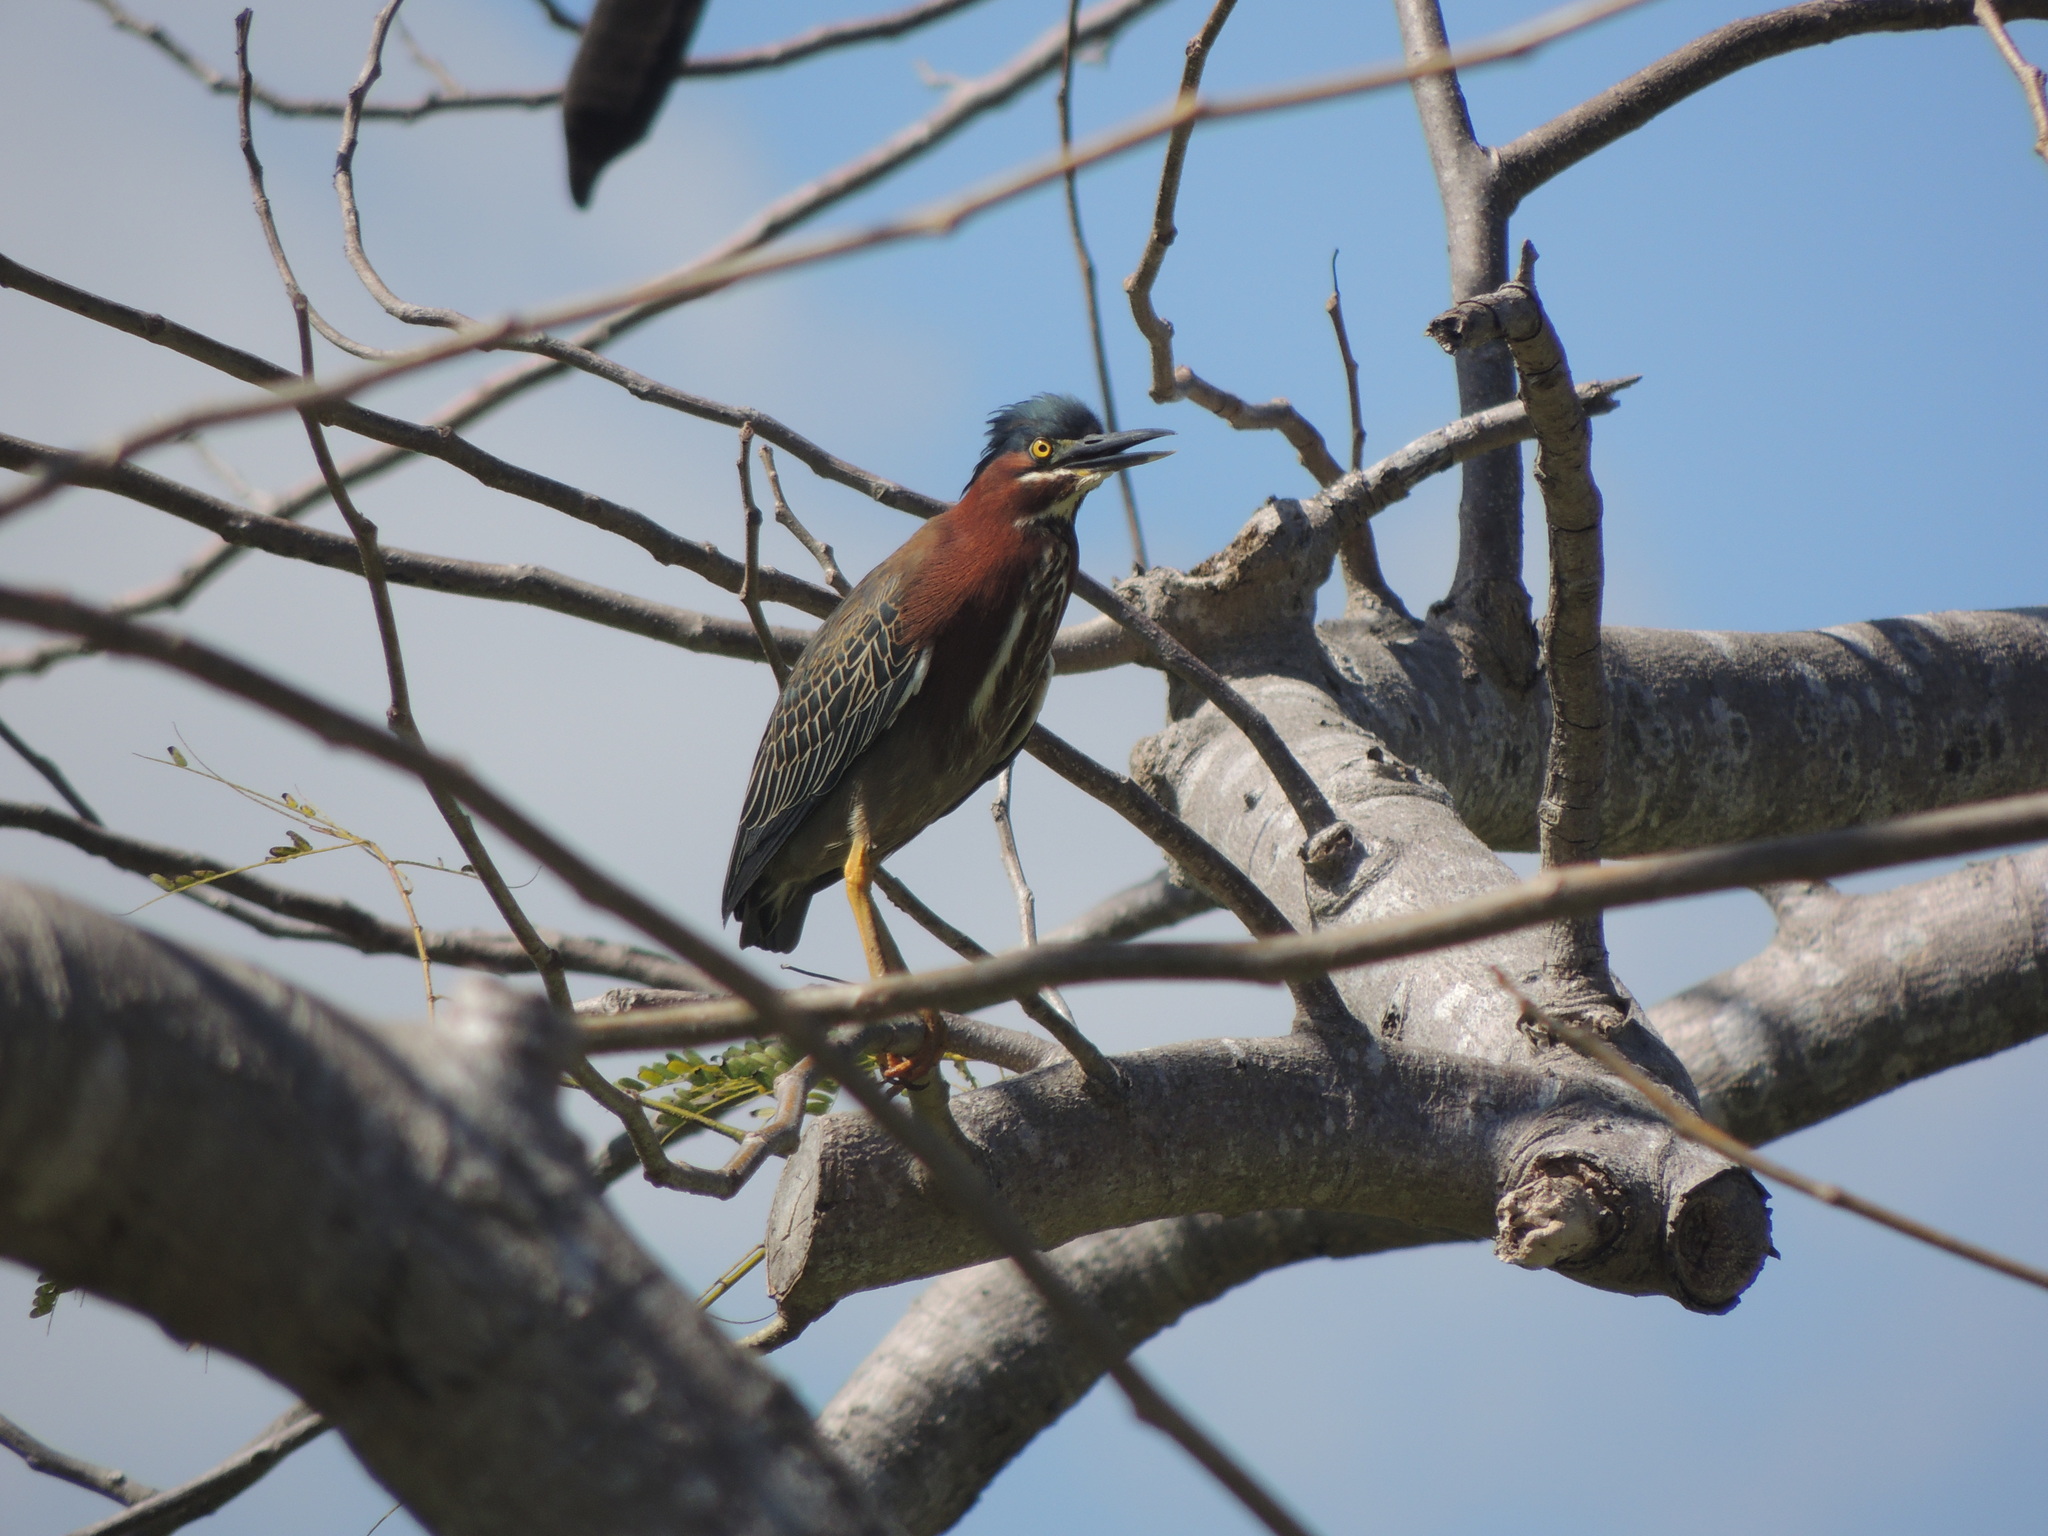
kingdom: Animalia
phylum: Chordata
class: Aves
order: Pelecaniformes
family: Ardeidae
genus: Butorides
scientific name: Butorides virescens
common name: Green heron
